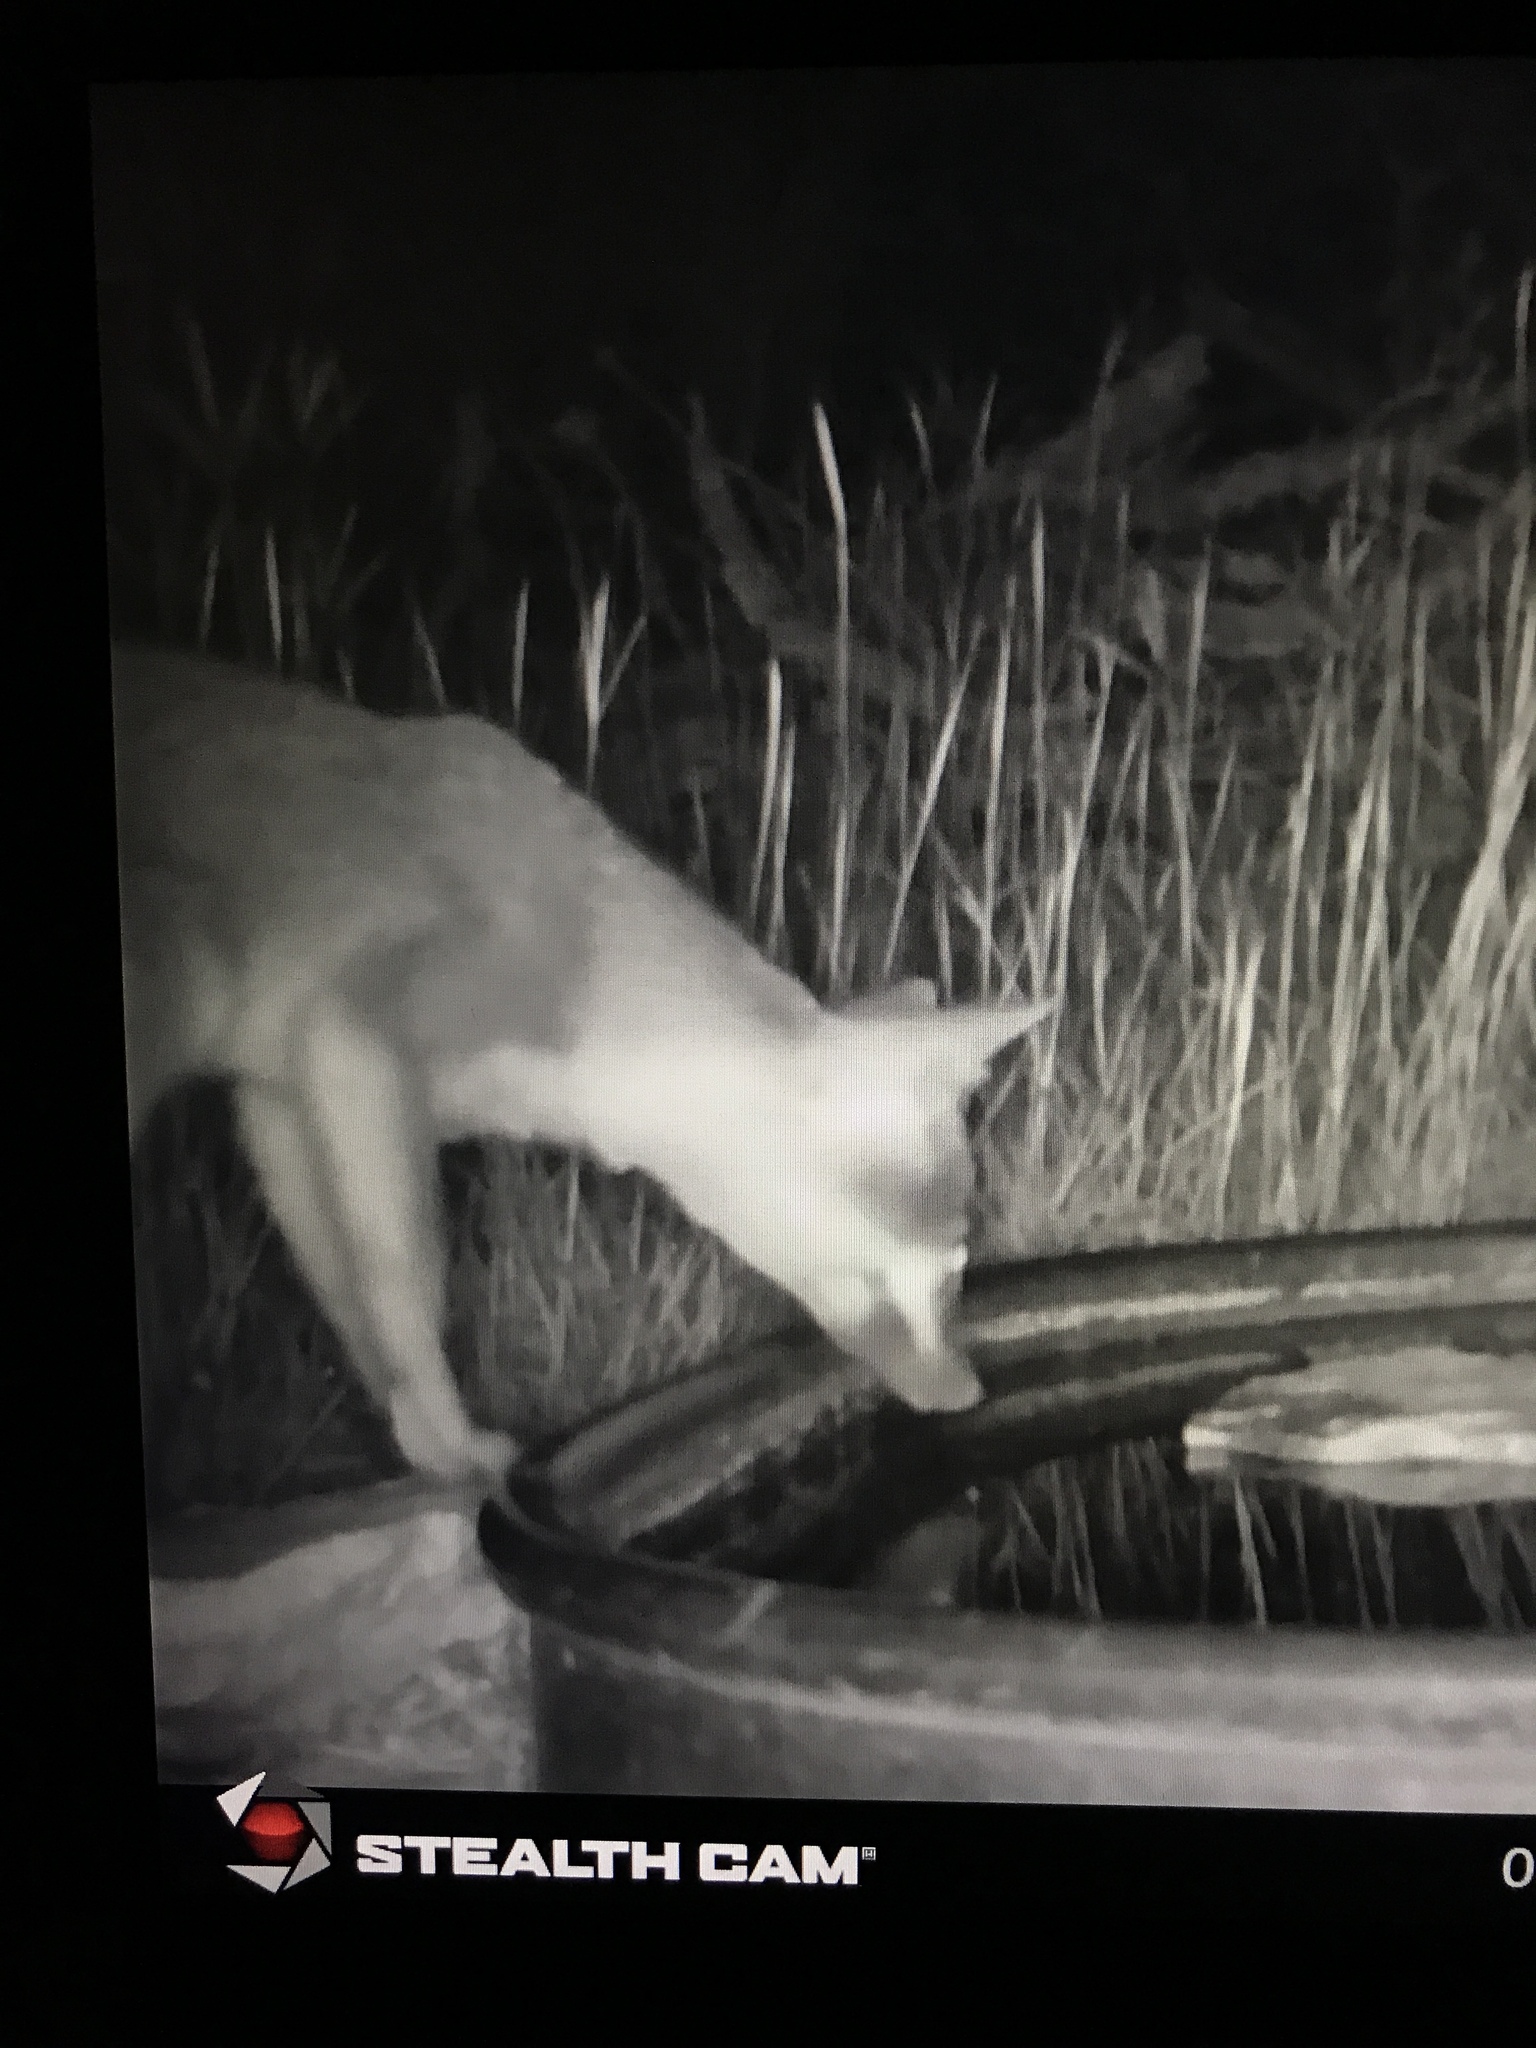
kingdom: Animalia
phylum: Chordata
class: Mammalia
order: Carnivora
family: Canidae
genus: Urocyon
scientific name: Urocyon cinereoargenteus
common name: Gray fox
